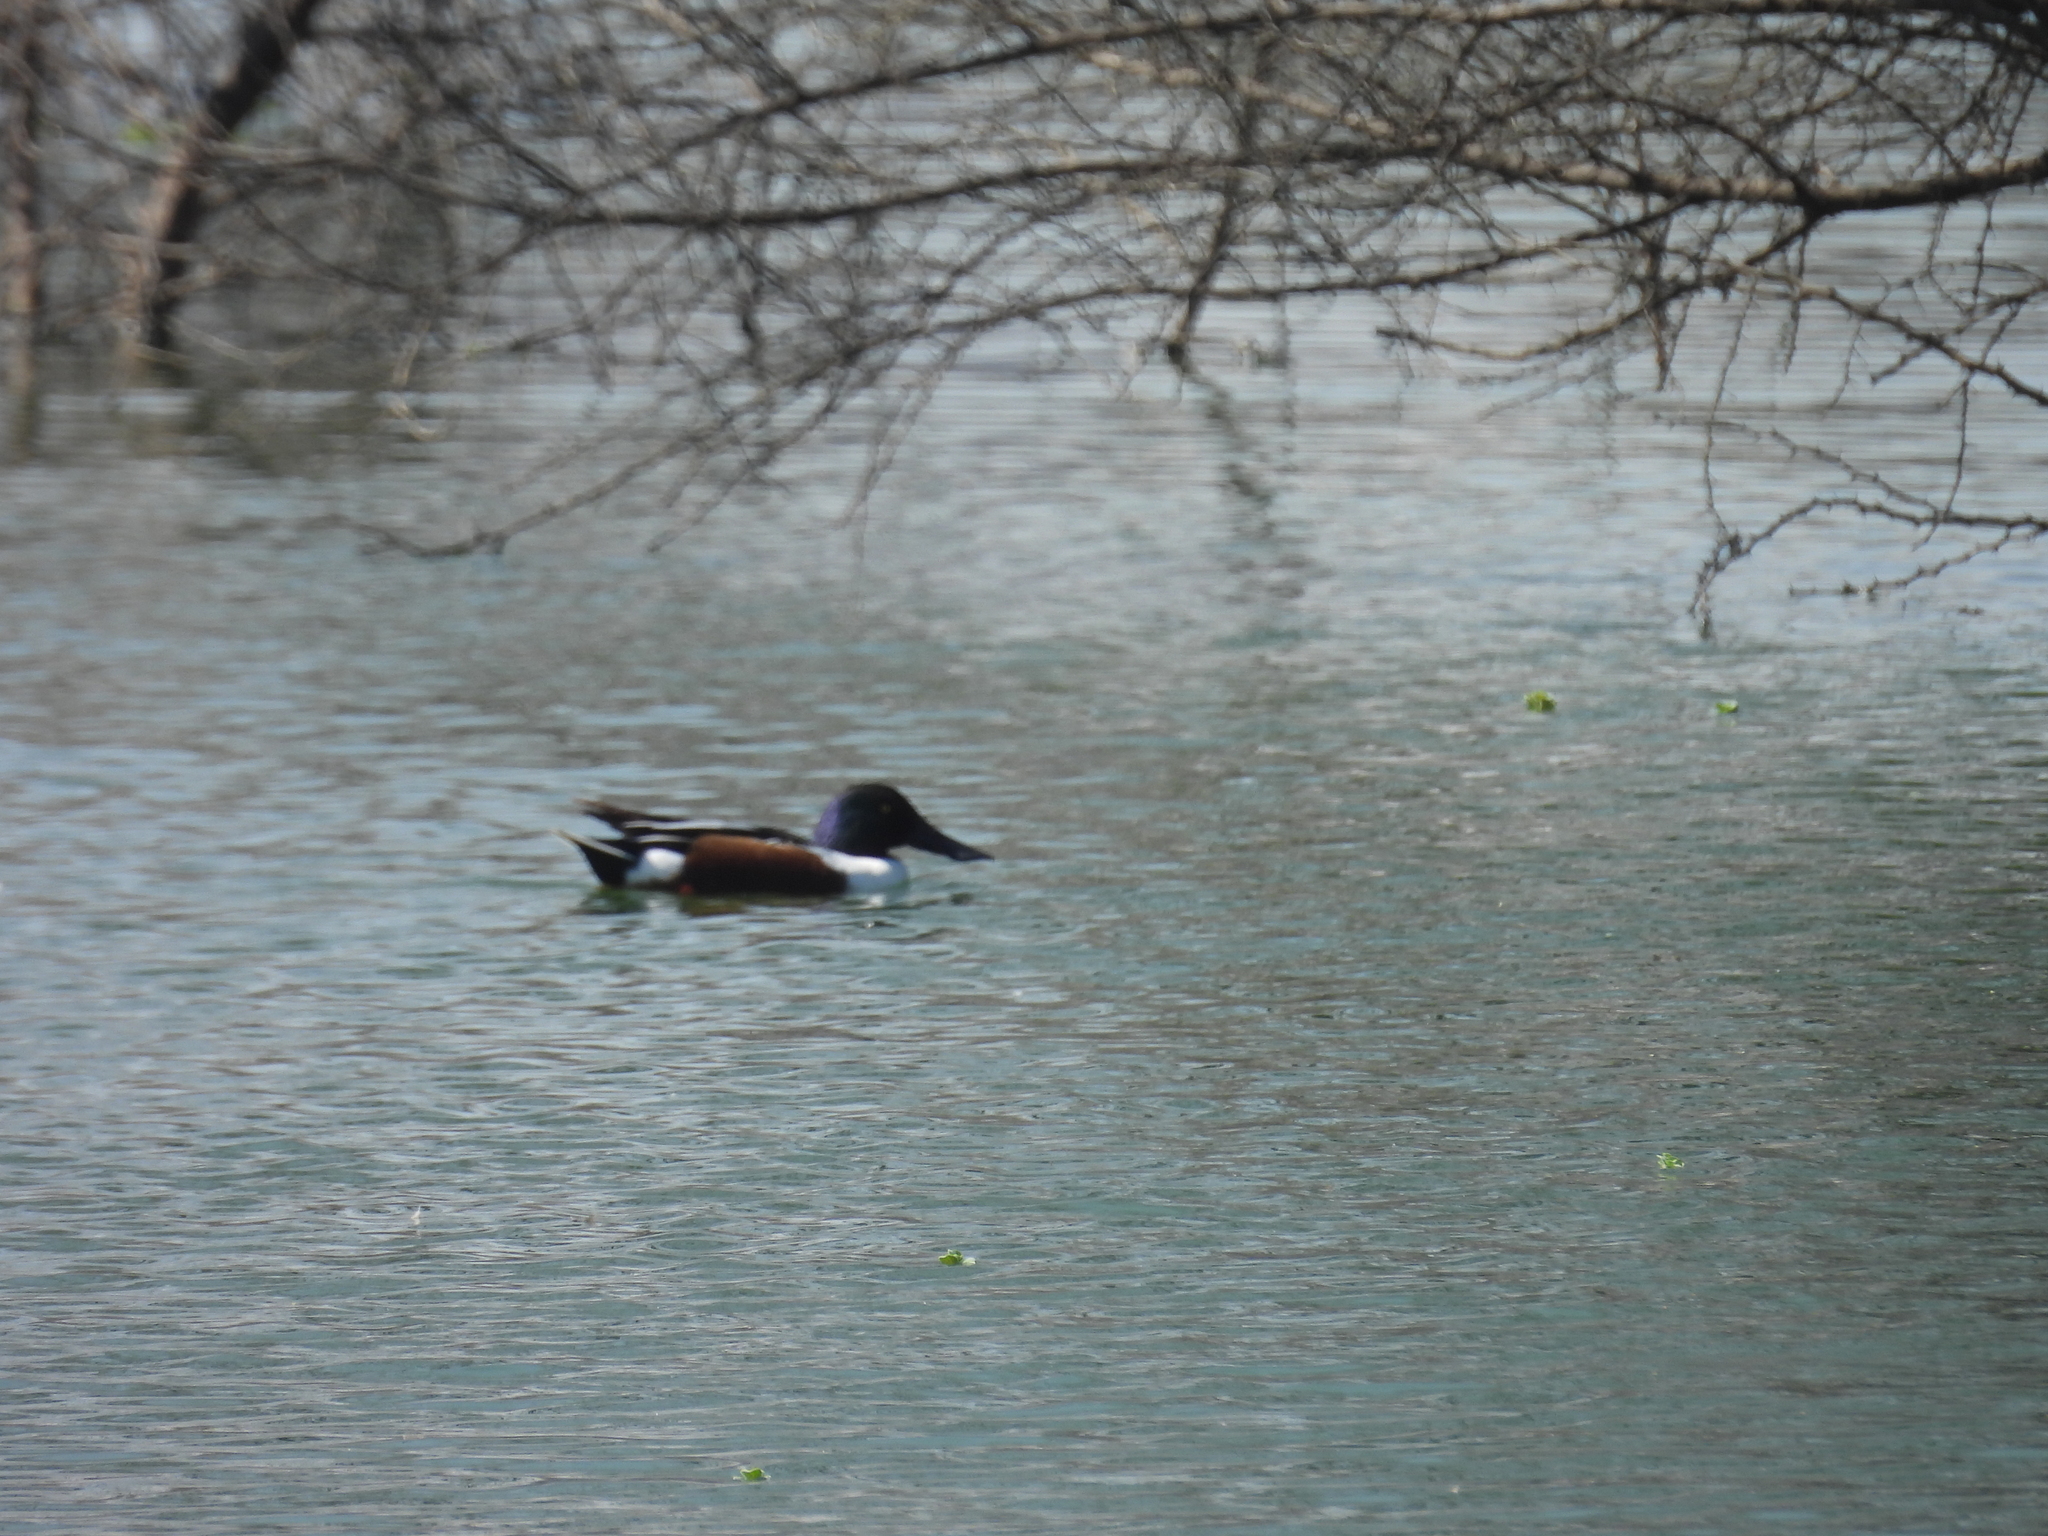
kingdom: Animalia
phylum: Chordata
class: Aves
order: Anseriformes
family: Anatidae
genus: Spatula
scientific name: Spatula clypeata
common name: Northern shoveler
